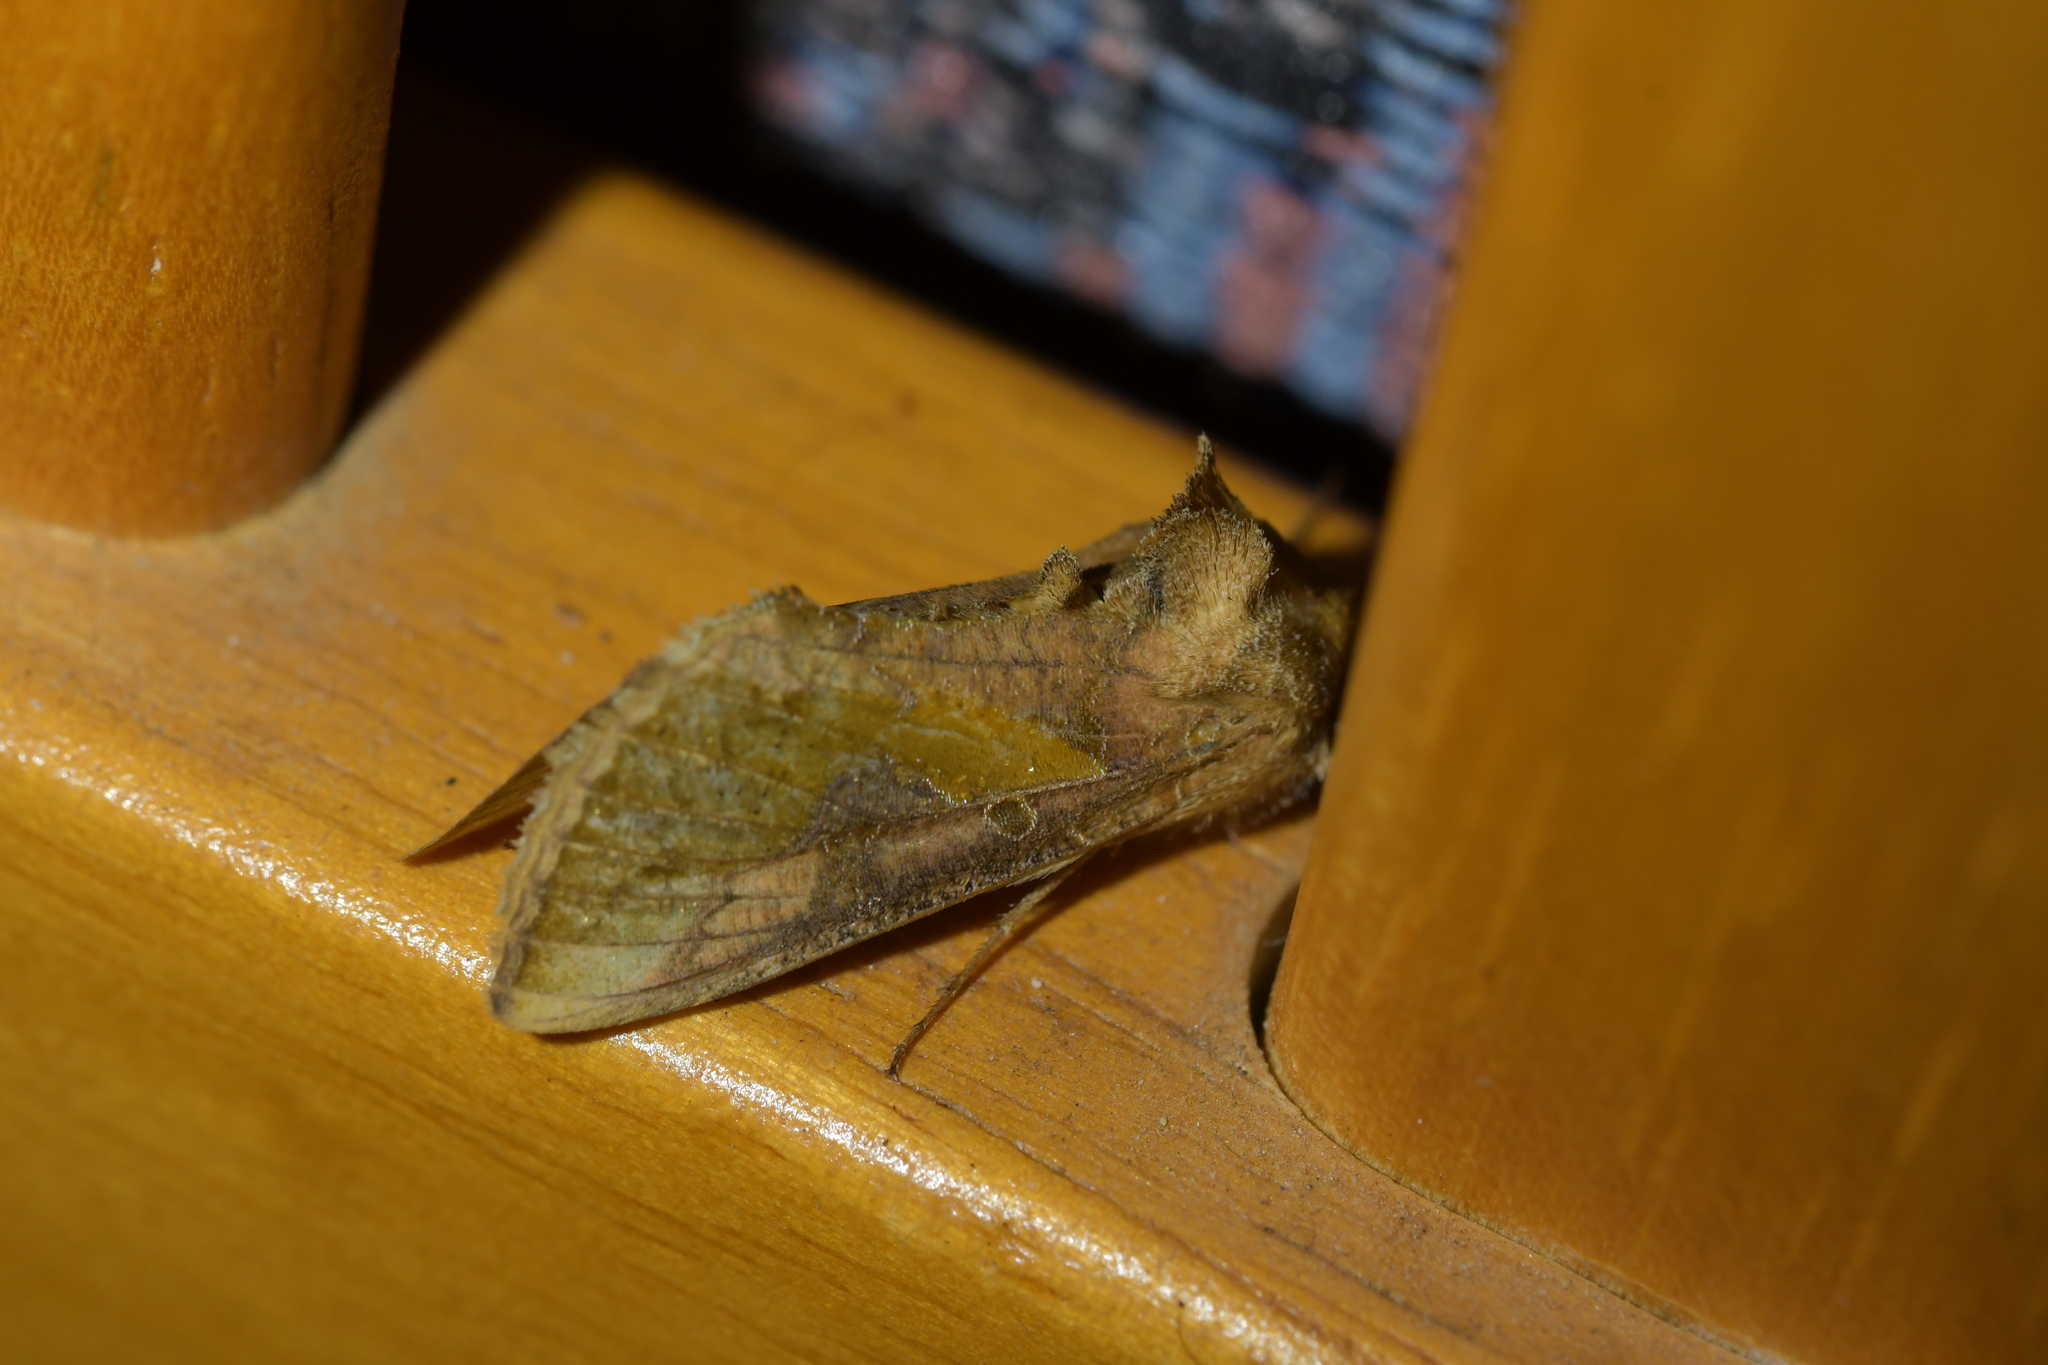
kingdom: Animalia
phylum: Arthropoda
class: Insecta
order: Lepidoptera
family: Noctuidae
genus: Thysanoplusia
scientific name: Thysanoplusia orichalcea
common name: Slender burnished brass, golden plusia
